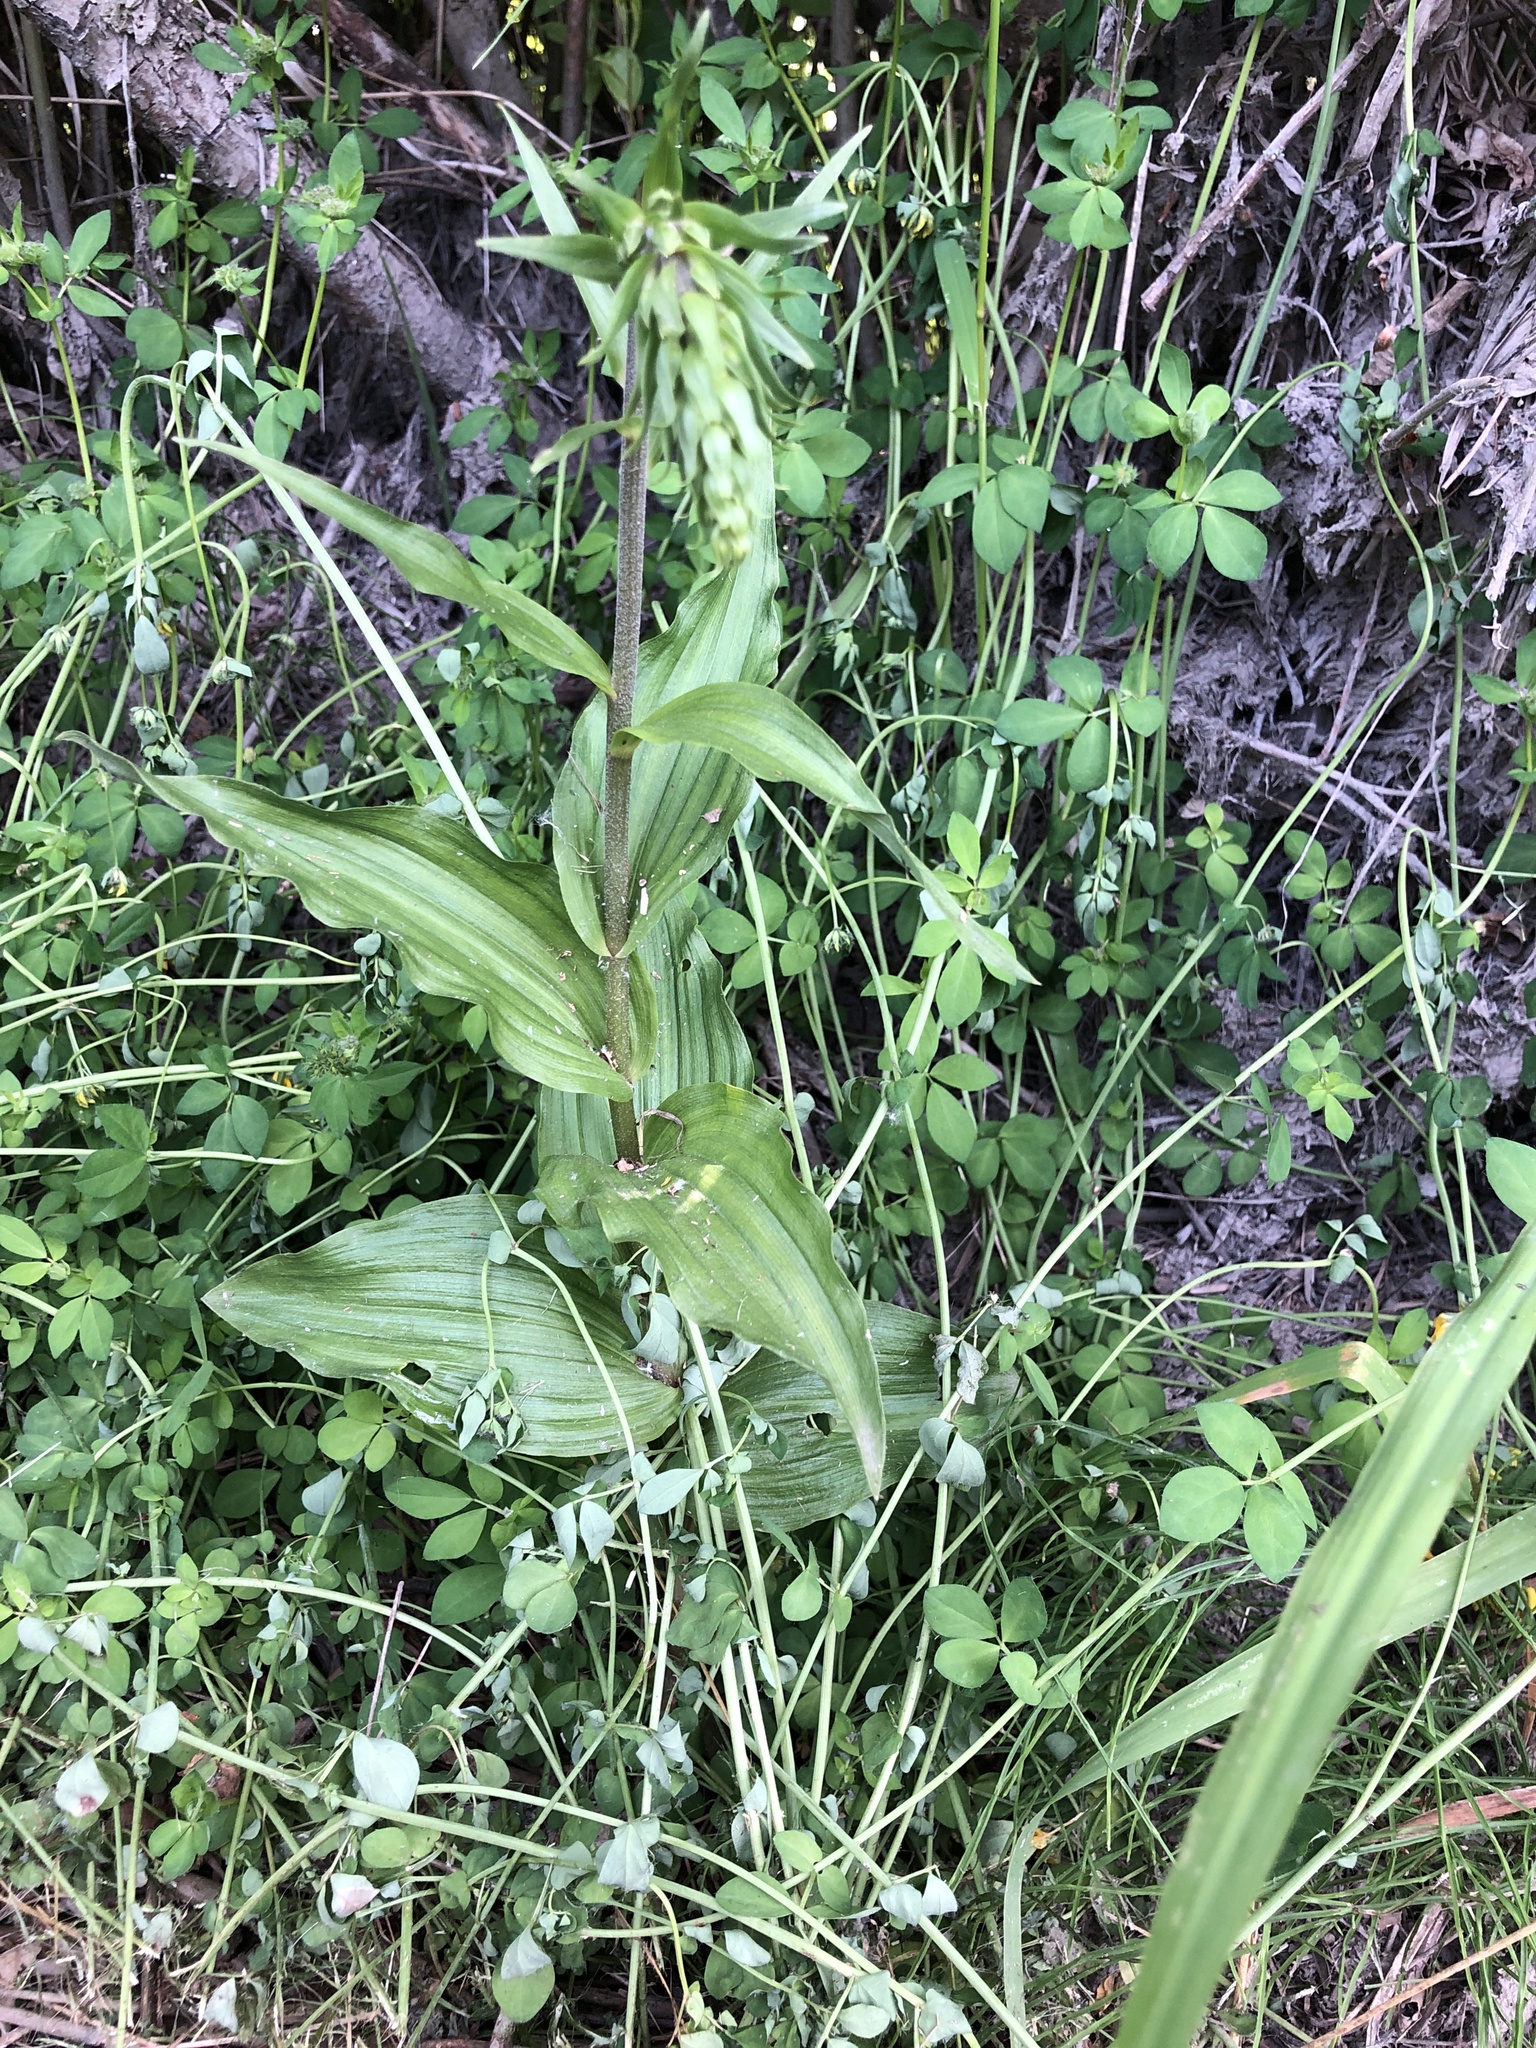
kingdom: Plantae
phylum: Tracheophyta
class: Liliopsida
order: Asparagales
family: Orchidaceae
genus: Epipactis
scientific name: Epipactis helleborine
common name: Broad-leaved helleborine
